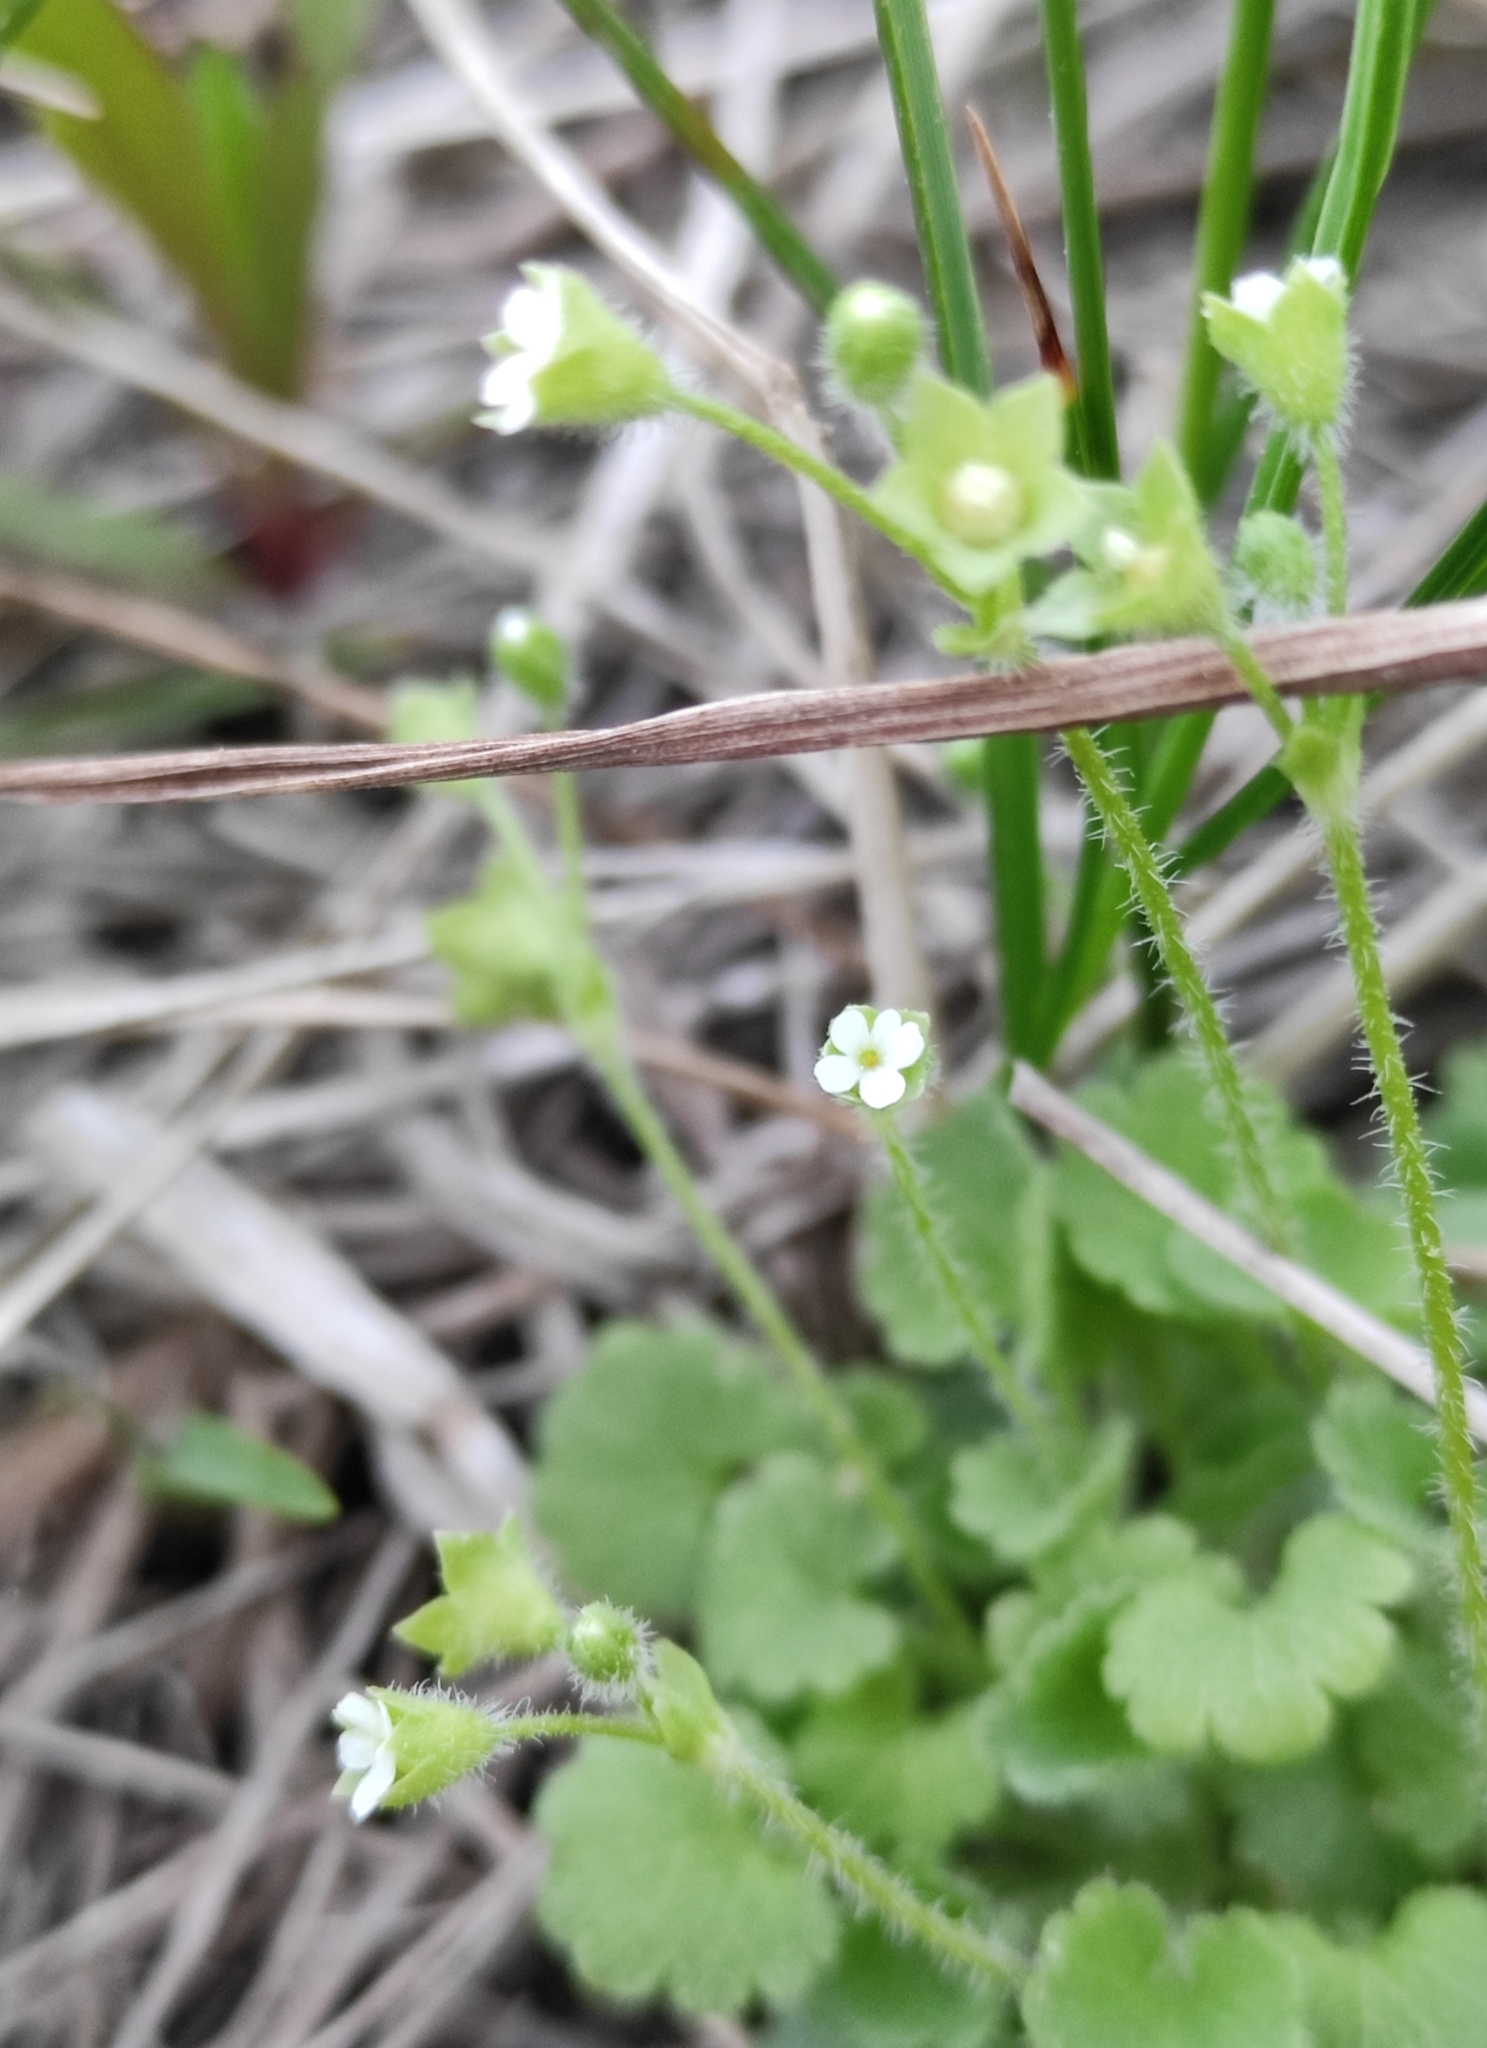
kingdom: Plantae
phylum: Tracheophyta
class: Magnoliopsida
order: Ericales
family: Primulaceae
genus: Androsace
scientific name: Androsace gmelinii
